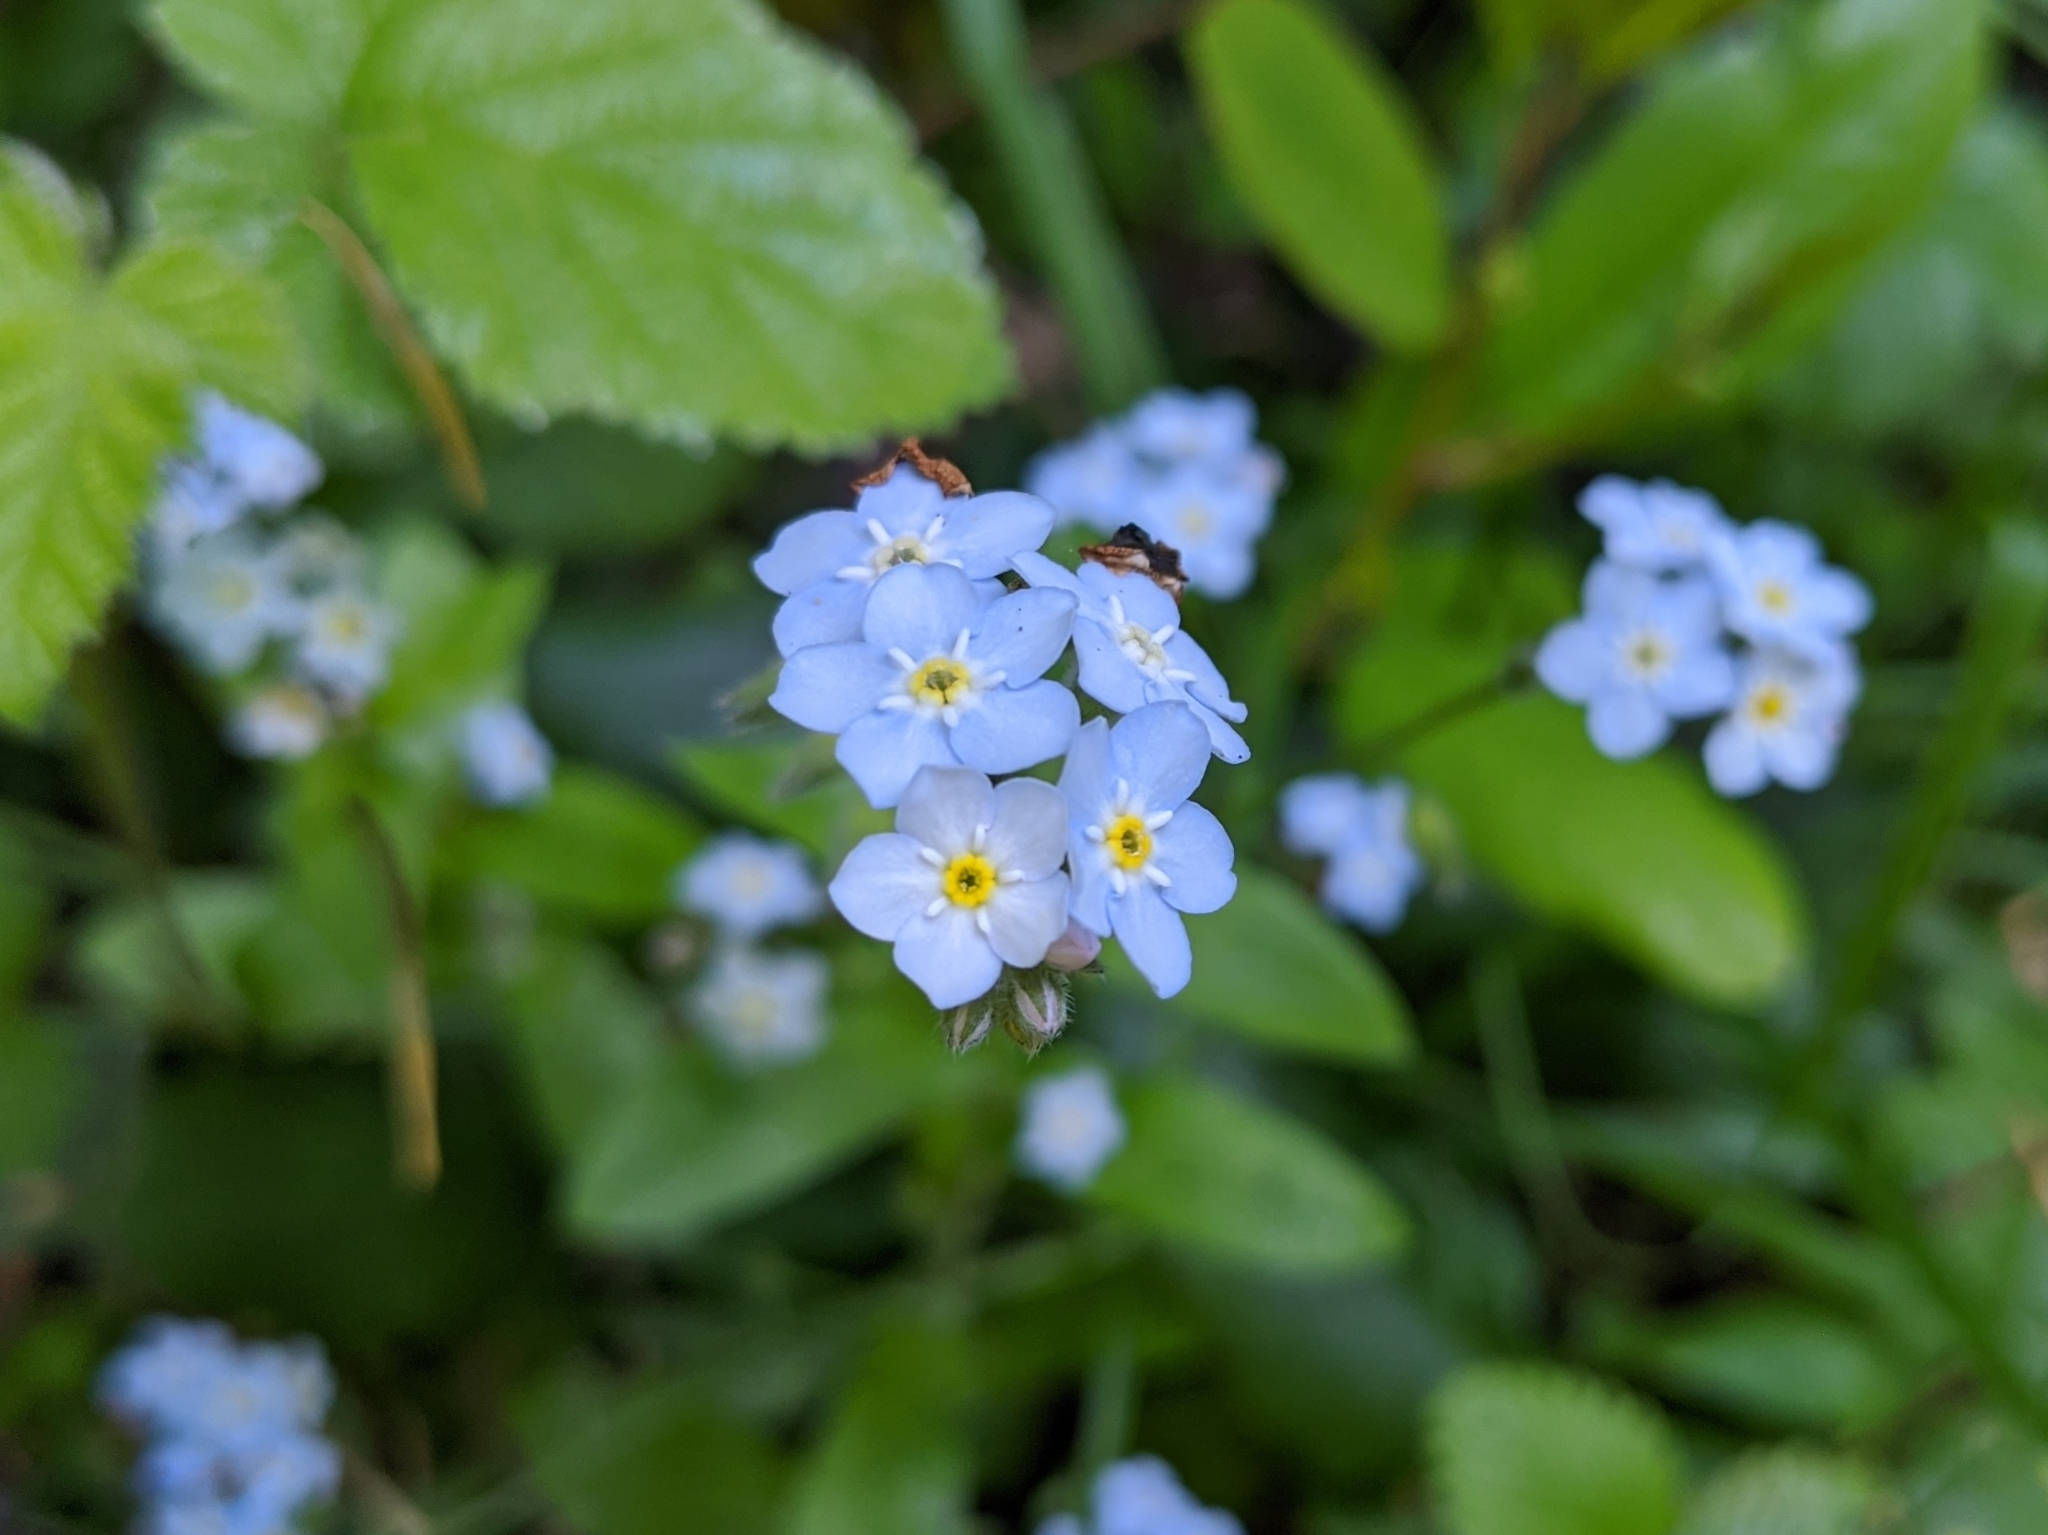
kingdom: Plantae
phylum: Tracheophyta
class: Magnoliopsida
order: Boraginales
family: Boraginaceae
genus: Myosotis
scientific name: Myosotis latifolia
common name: Broadleaf forget-me-not
